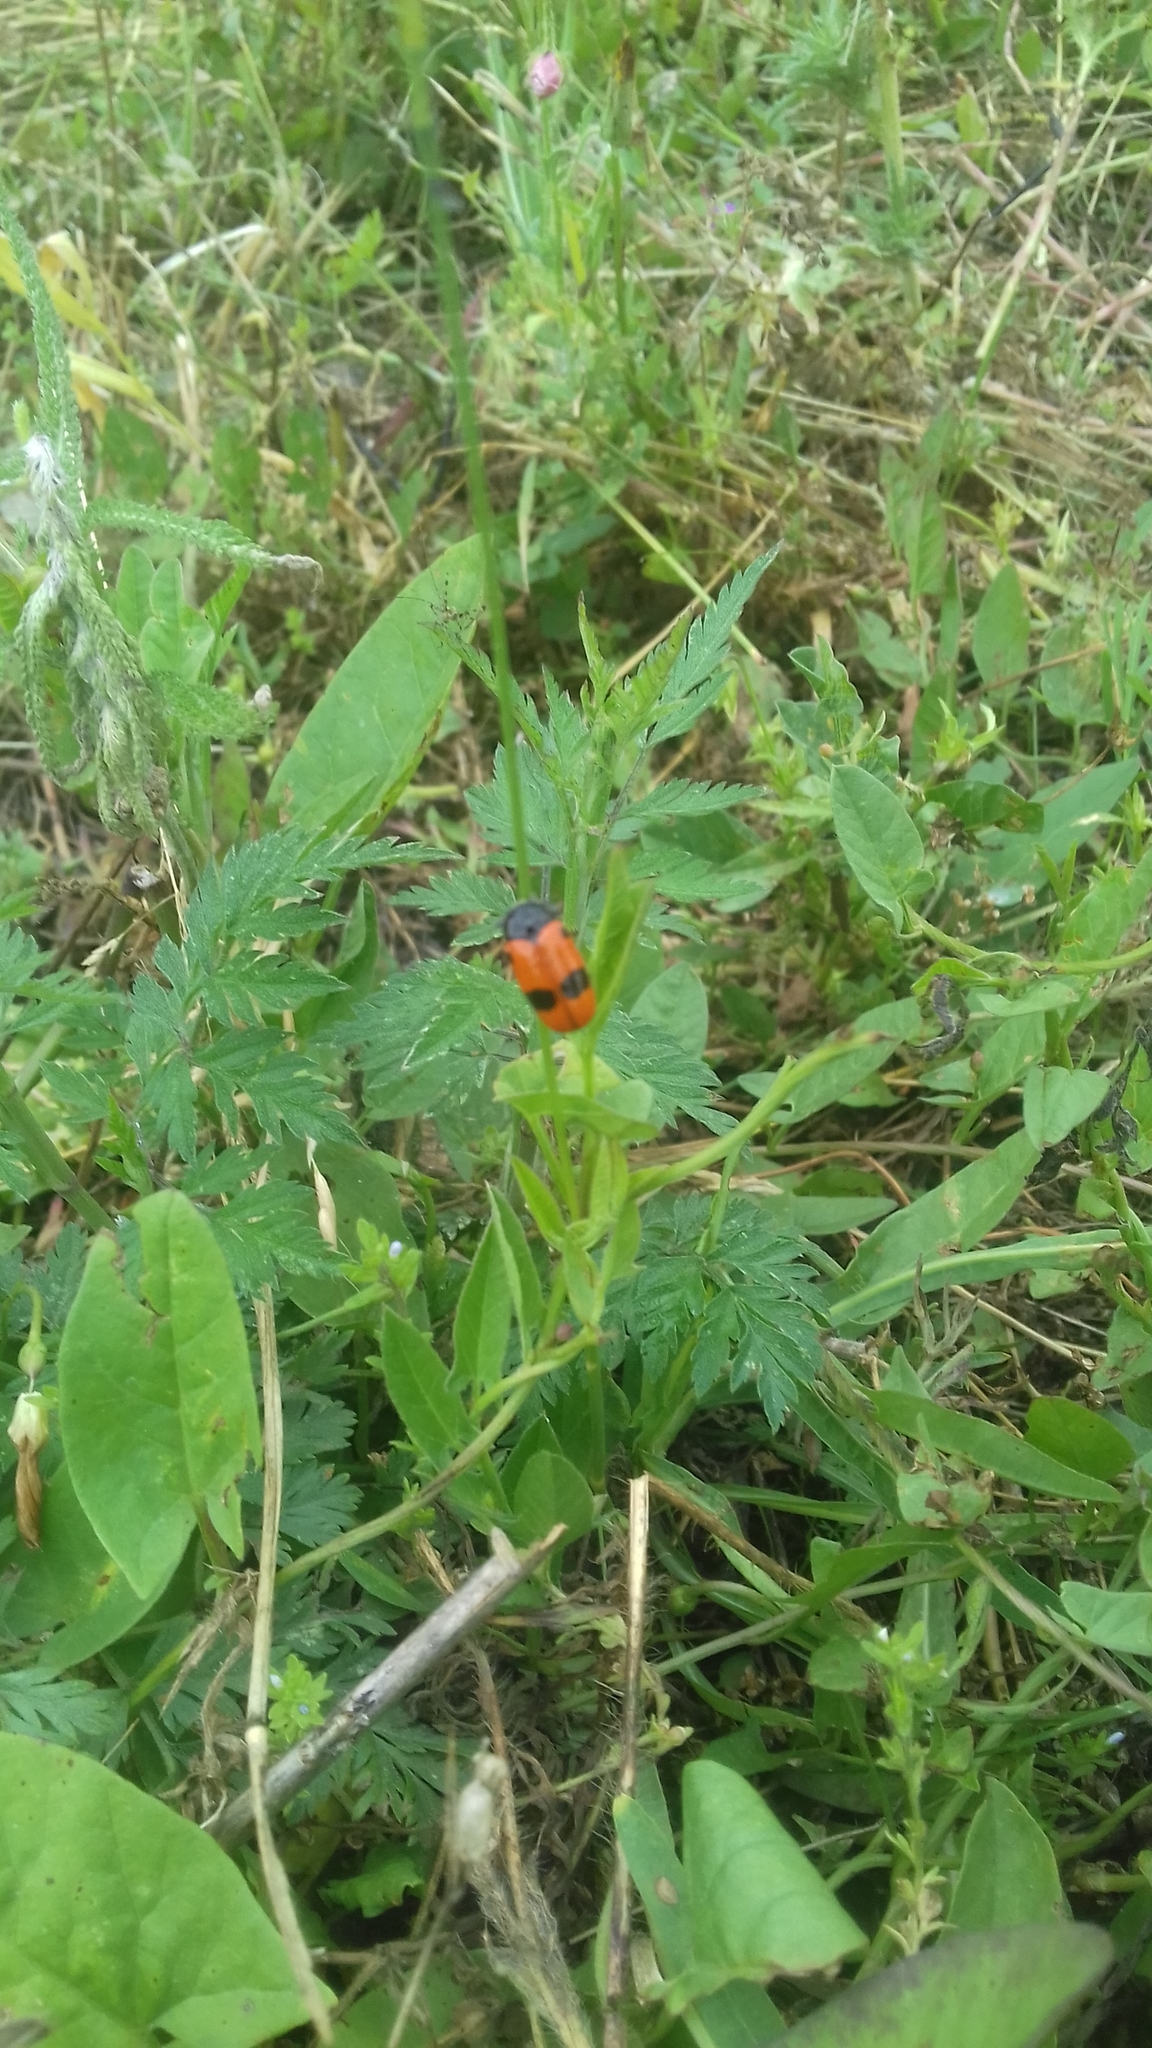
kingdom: Animalia
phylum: Arthropoda
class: Insecta
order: Coleoptera
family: Chrysomelidae
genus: Clytra
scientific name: Clytra laeviuscula
